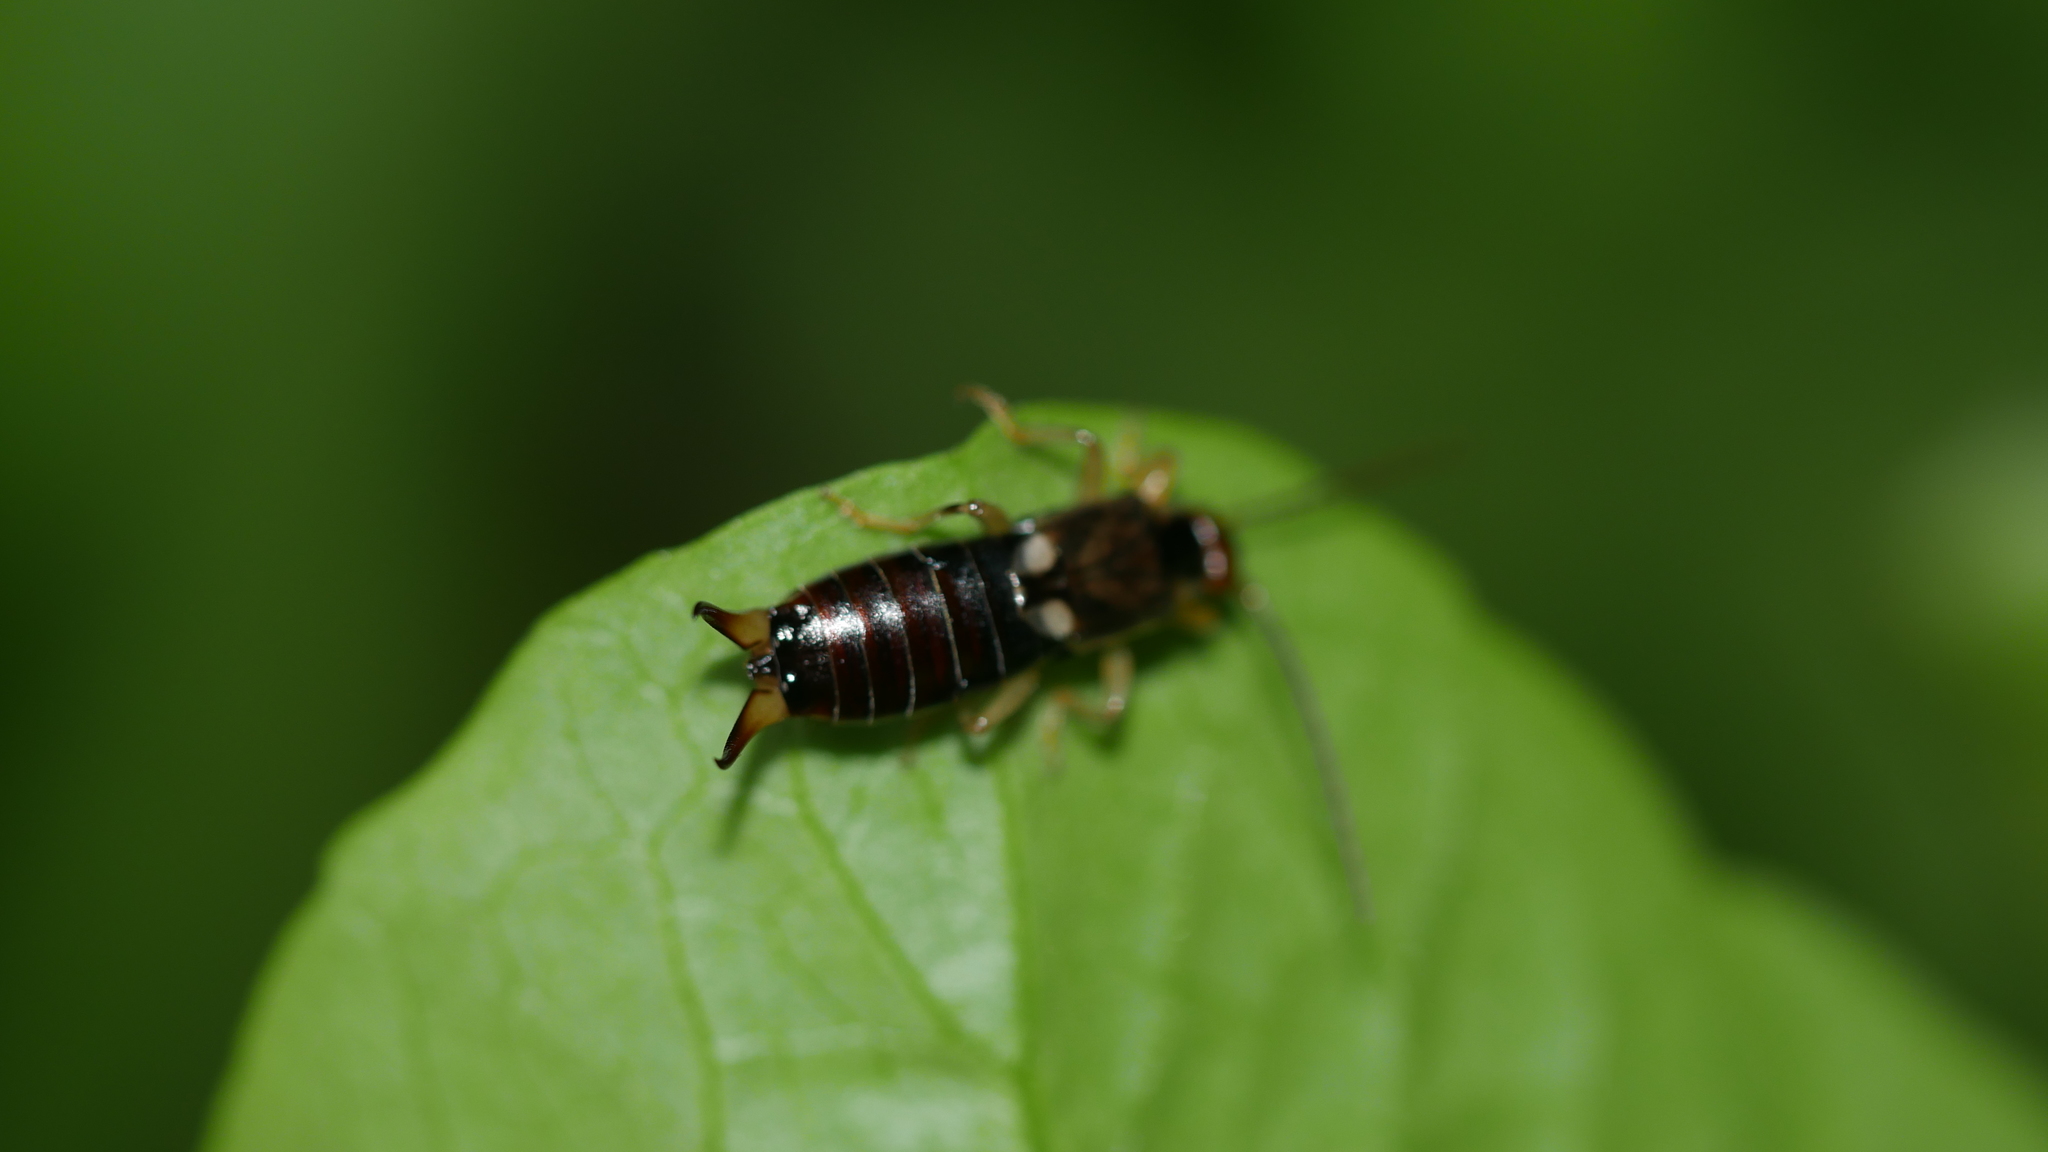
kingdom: Animalia
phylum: Arthropoda
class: Insecta
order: Dermaptera
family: Forficulidae
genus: Forficula
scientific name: Forficula
